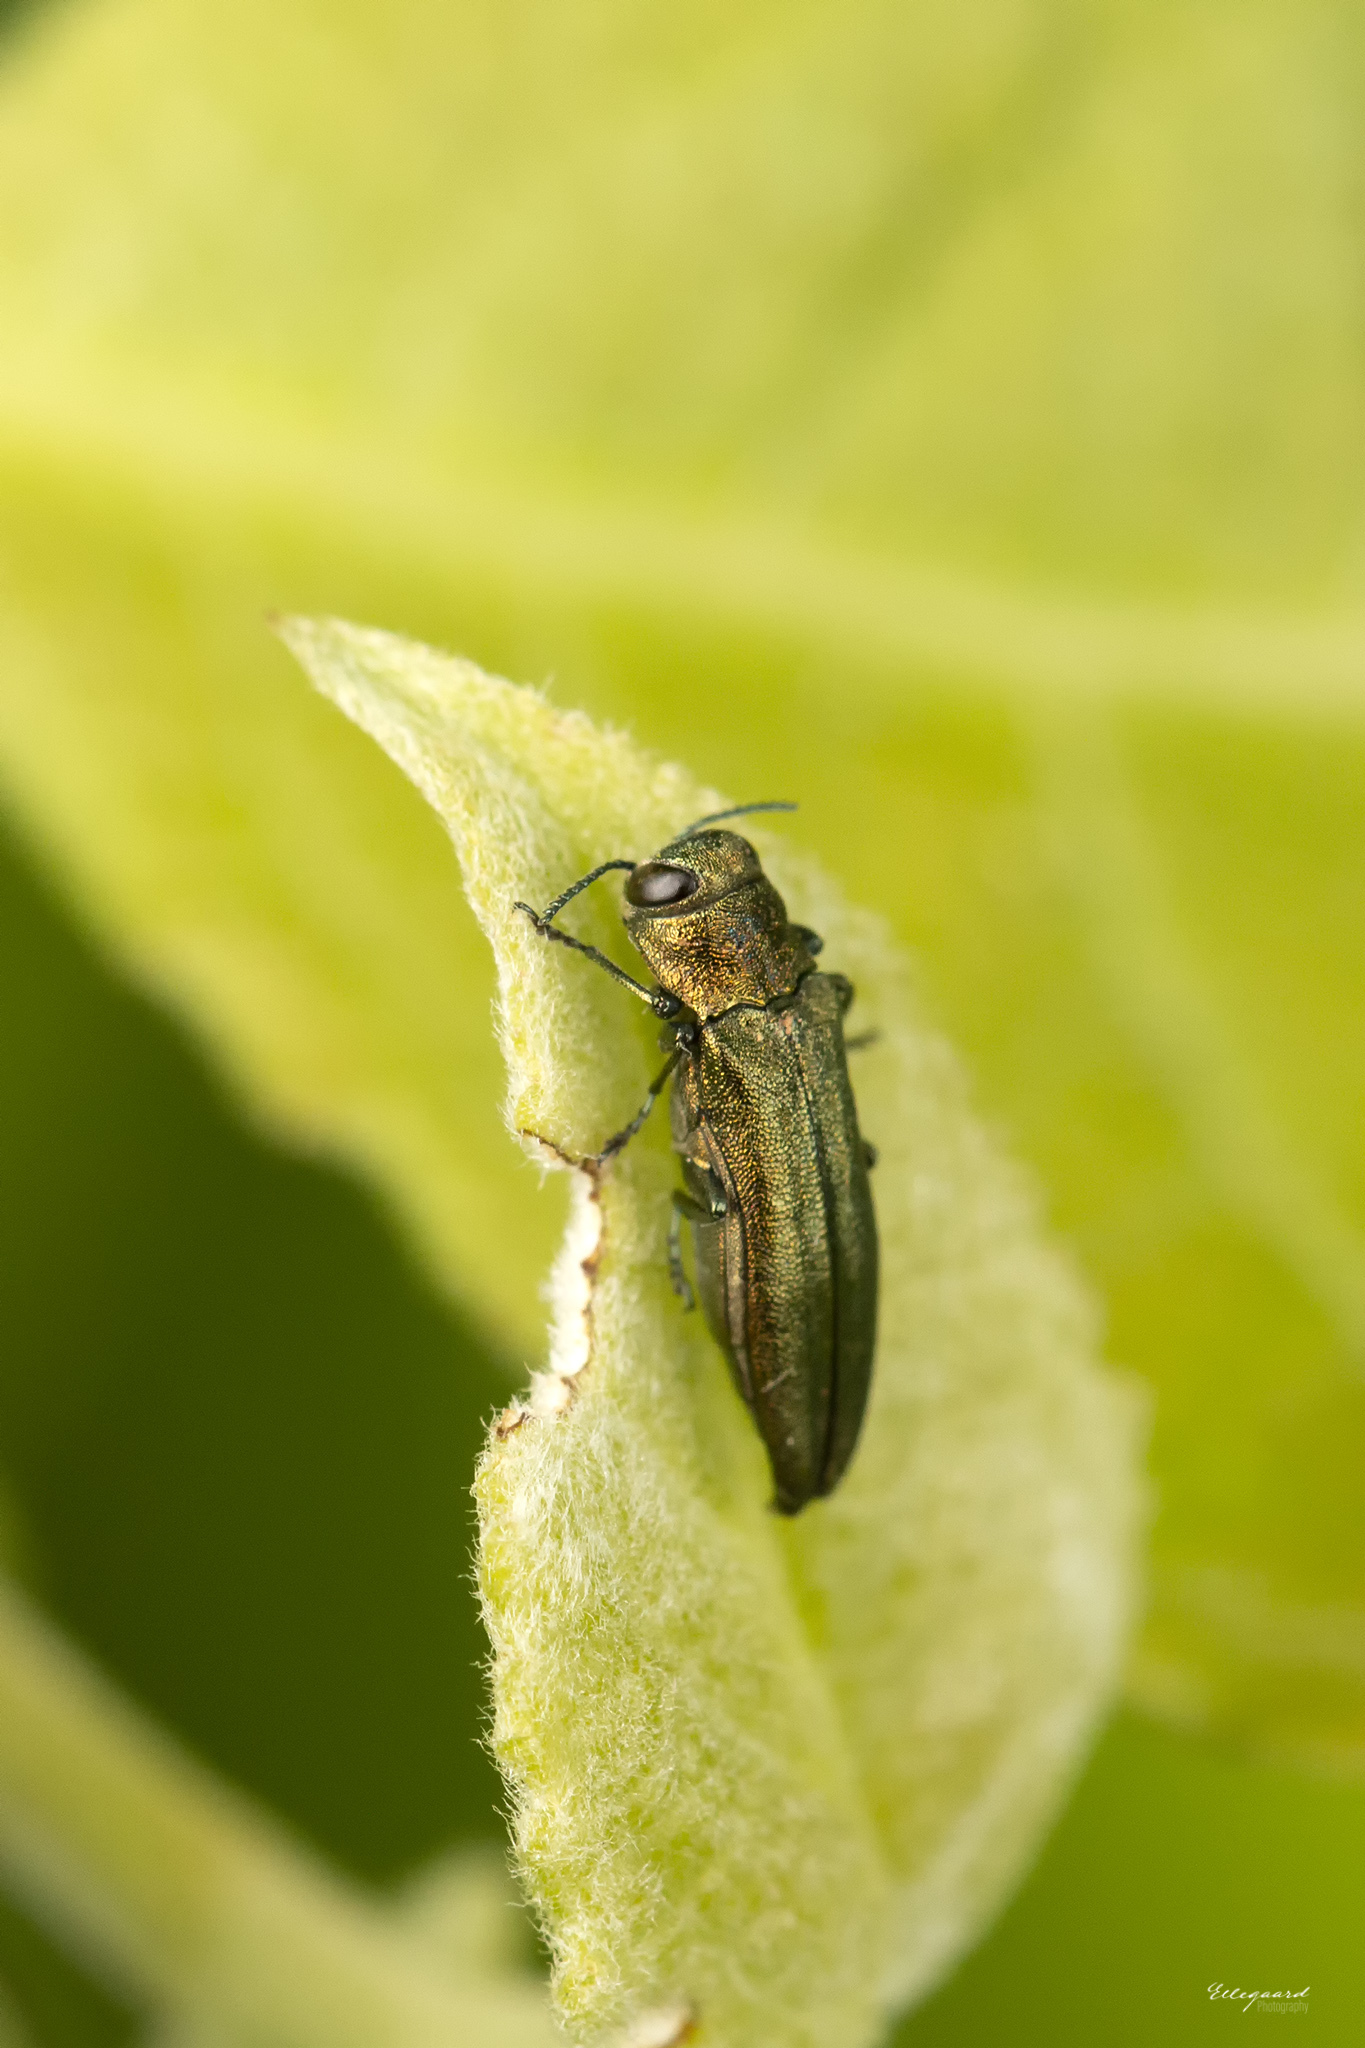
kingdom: Animalia
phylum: Arthropoda
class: Insecta
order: Coleoptera
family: Buprestidae
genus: Agrilus
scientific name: Agrilus viridis
